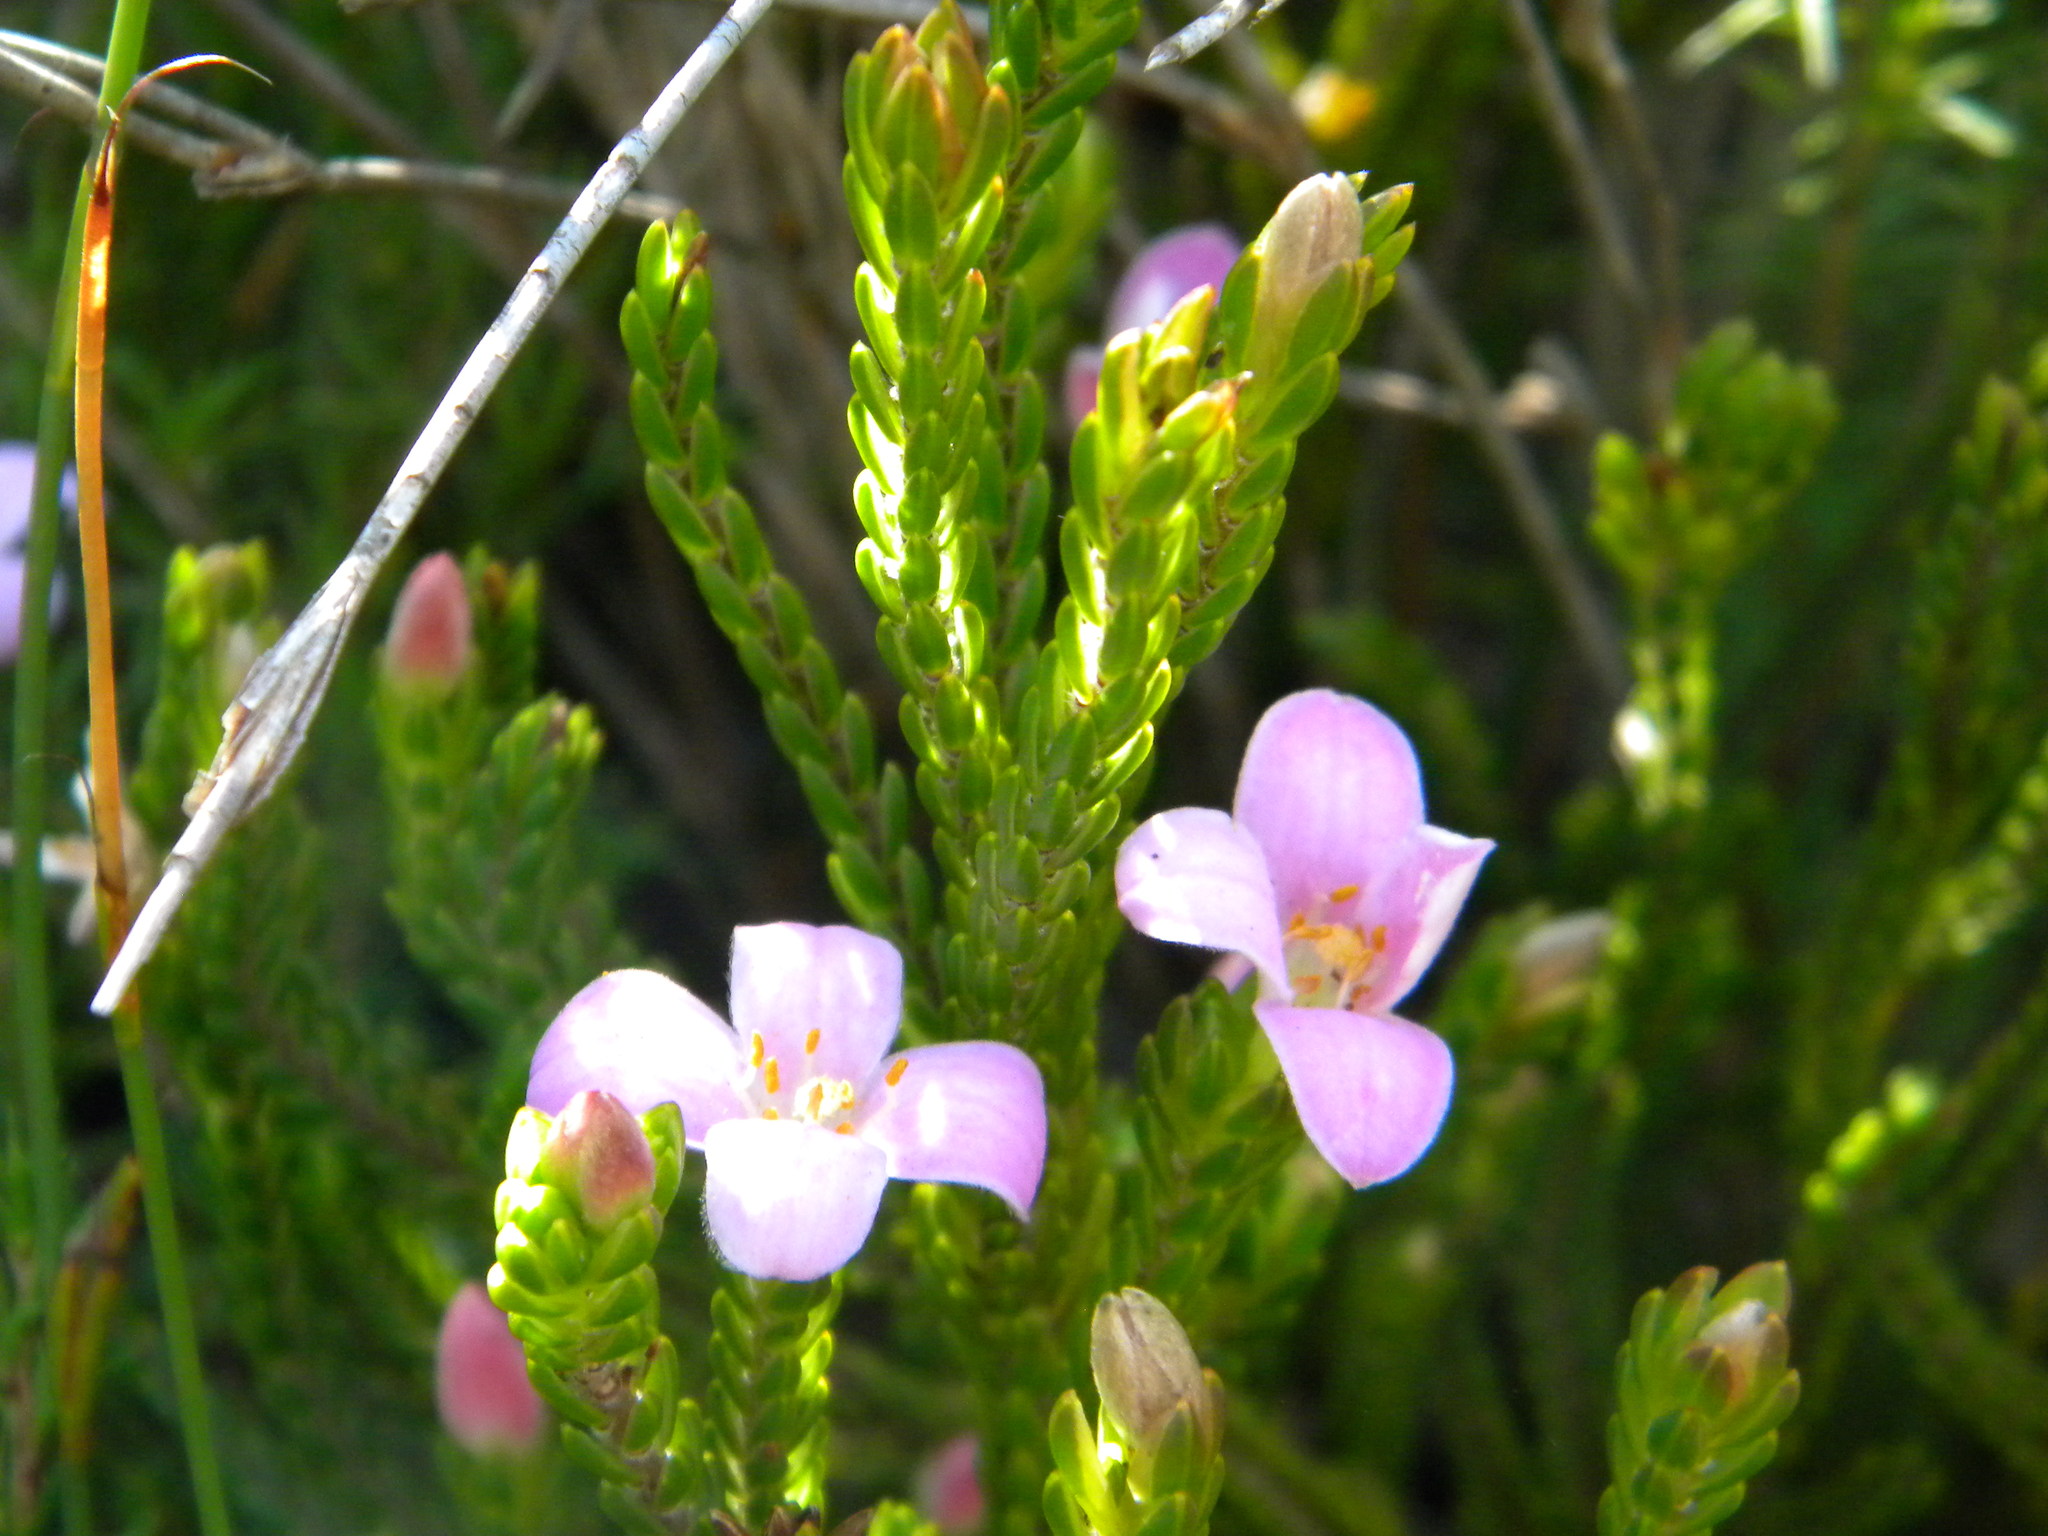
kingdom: Plantae
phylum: Tracheophyta
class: Magnoliopsida
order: Malvales
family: Thymelaeaceae
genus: Lachnaea
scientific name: Lachnaea grandiflora
